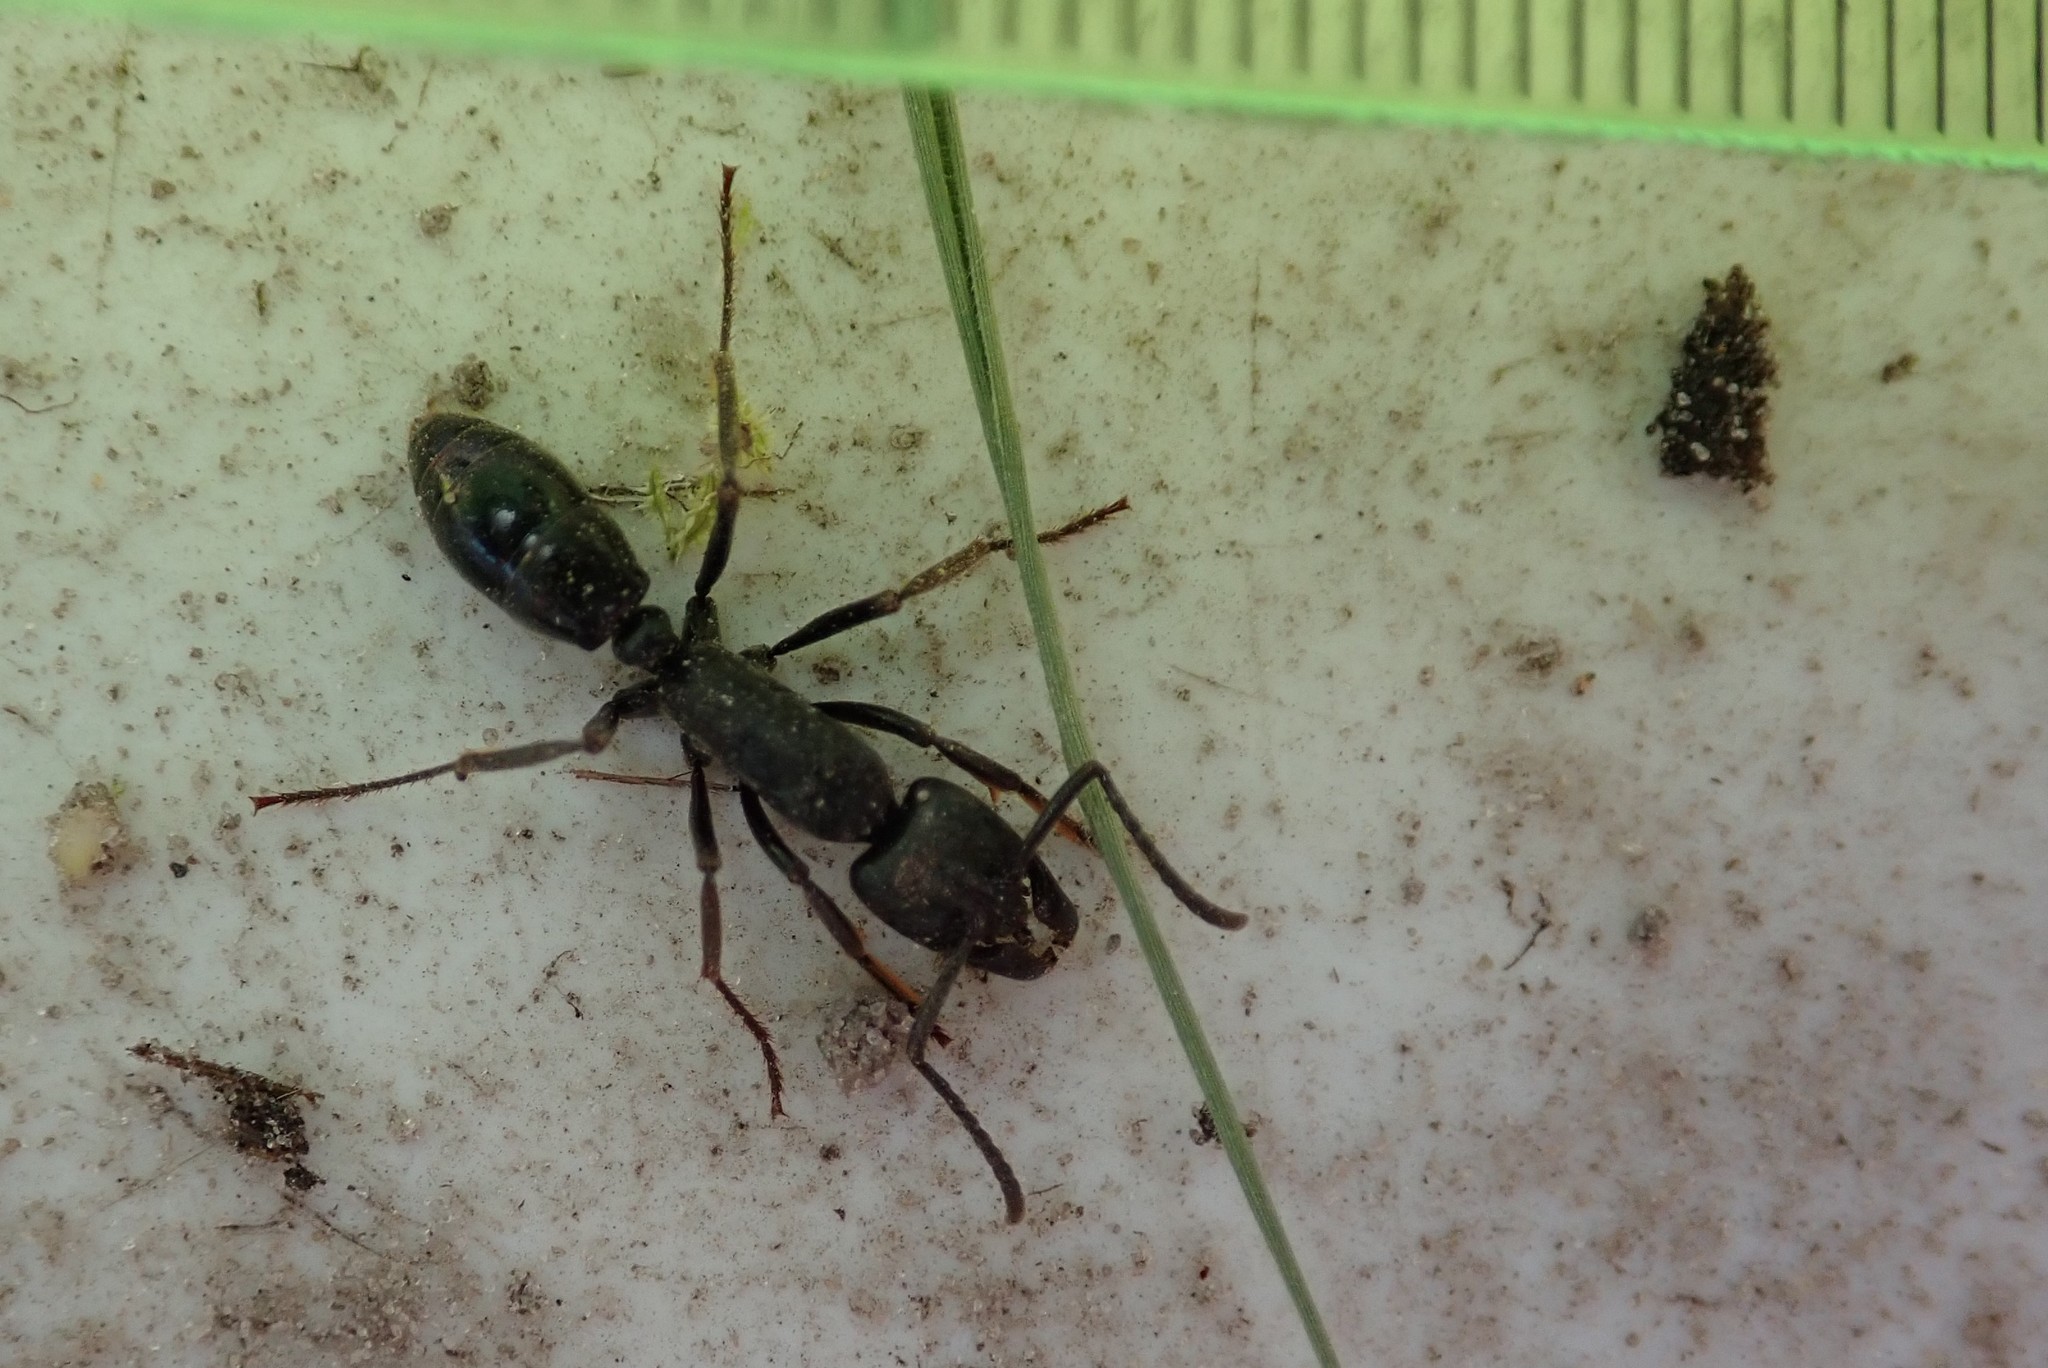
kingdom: Animalia
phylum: Arthropoda
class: Insecta
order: Hymenoptera
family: Formicidae
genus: Paltothyreus
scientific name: Paltothyreus tarsatus
